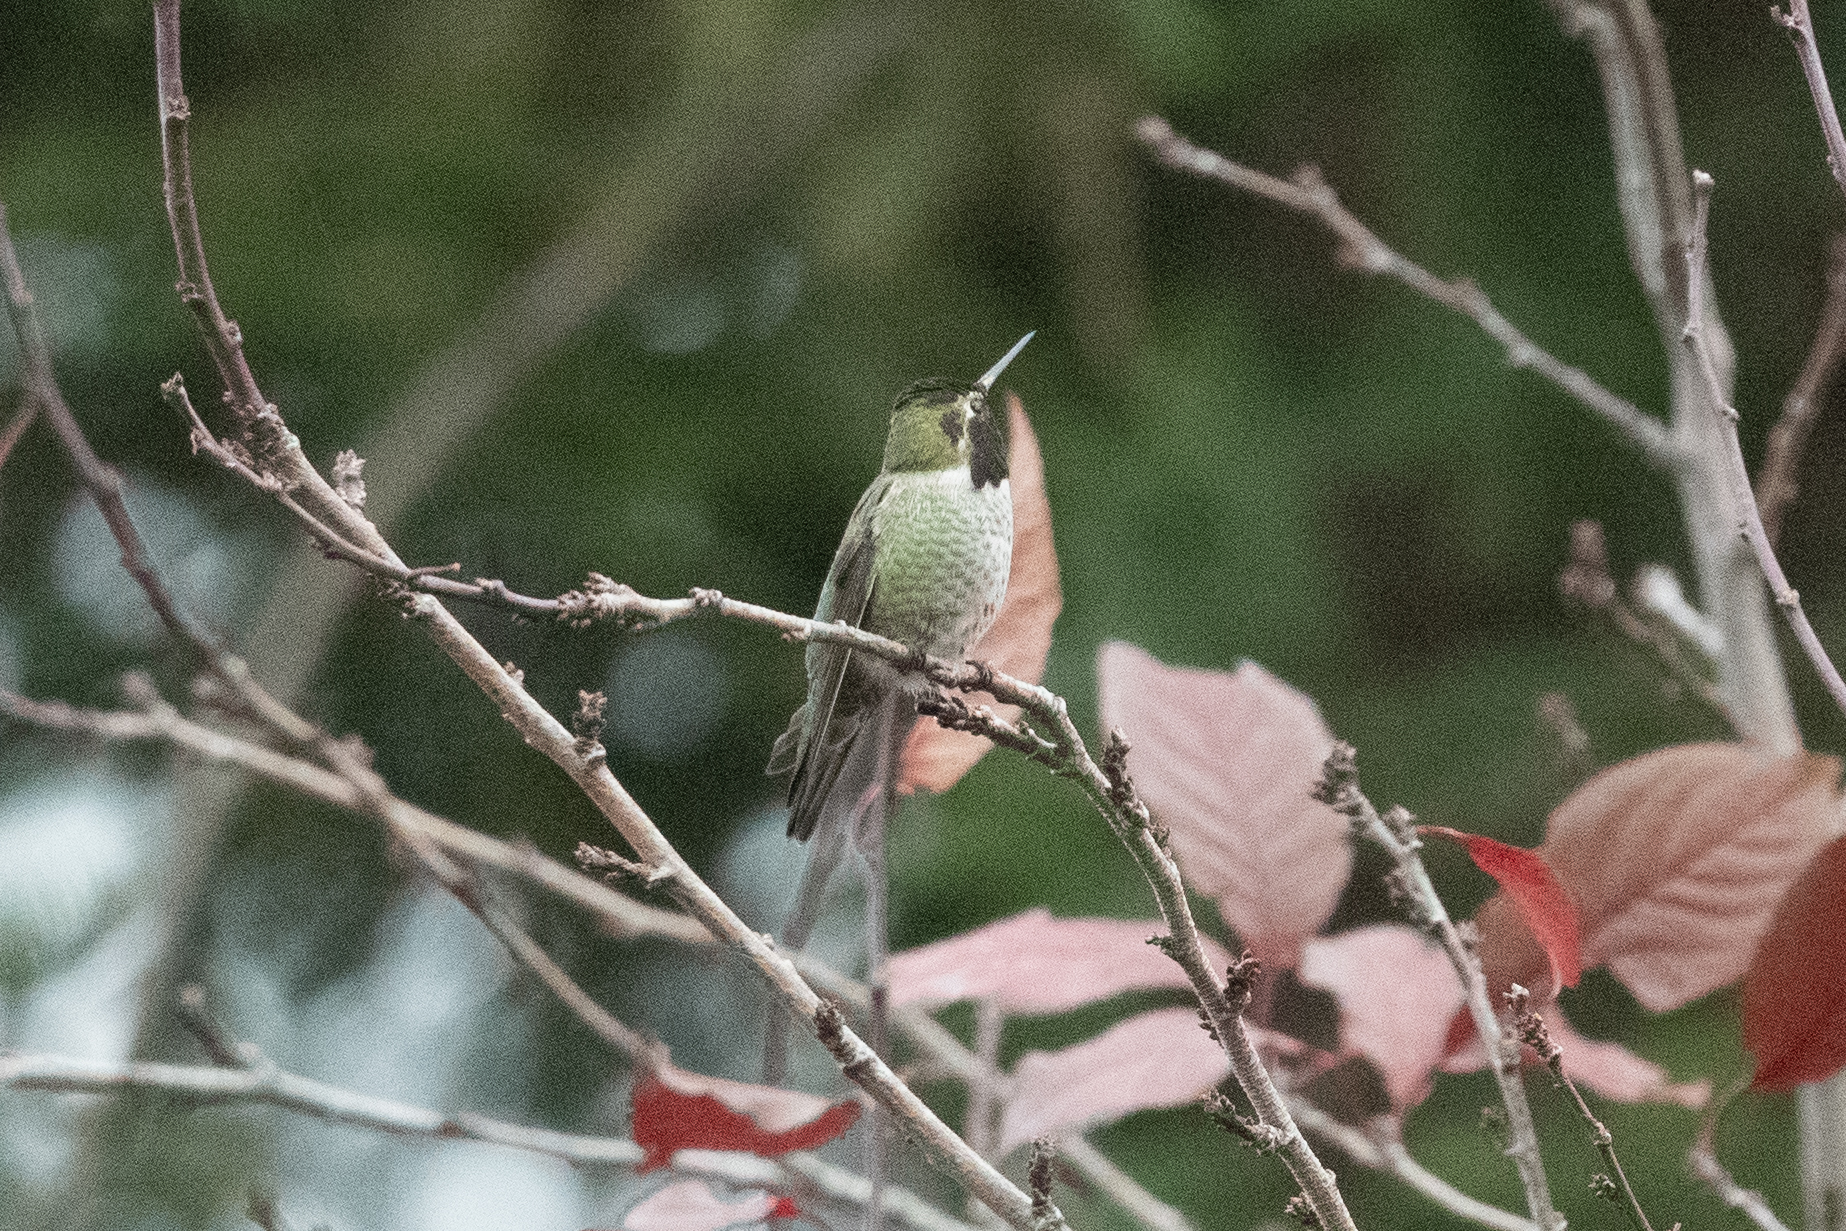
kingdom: Animalia
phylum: Chordata
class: Aves
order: Apodiformes
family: Trochilidae
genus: Calypte
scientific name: Calypte anna
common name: Anna's hummingbird
